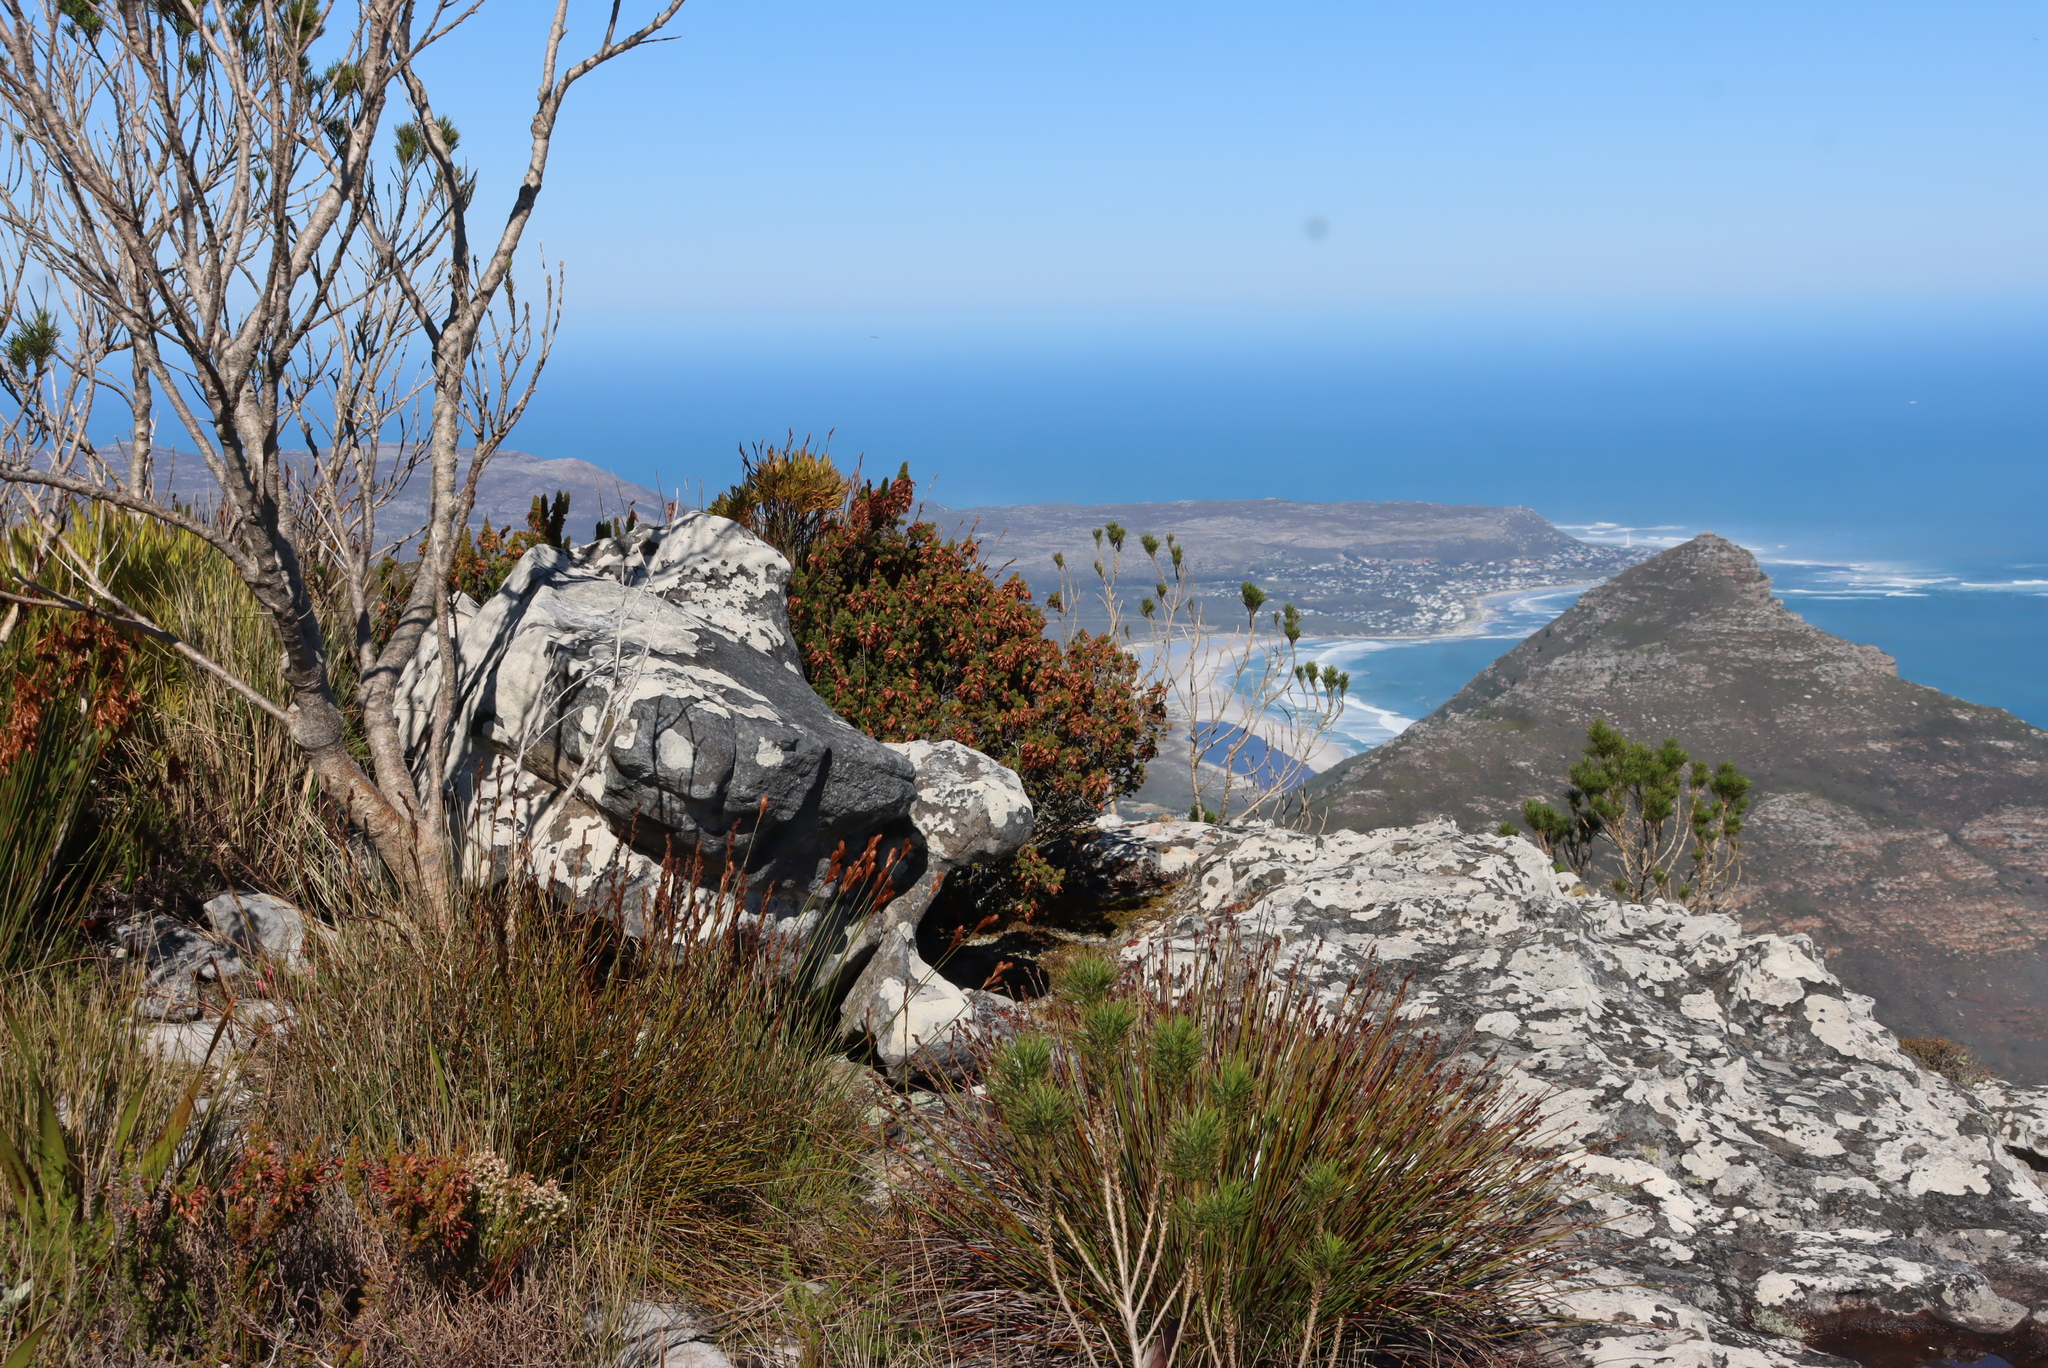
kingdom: Plantae
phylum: Tracheophyta
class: Magnoliopsida
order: Ericales
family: Ericaceae
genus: Erica
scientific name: Erica coccinea
